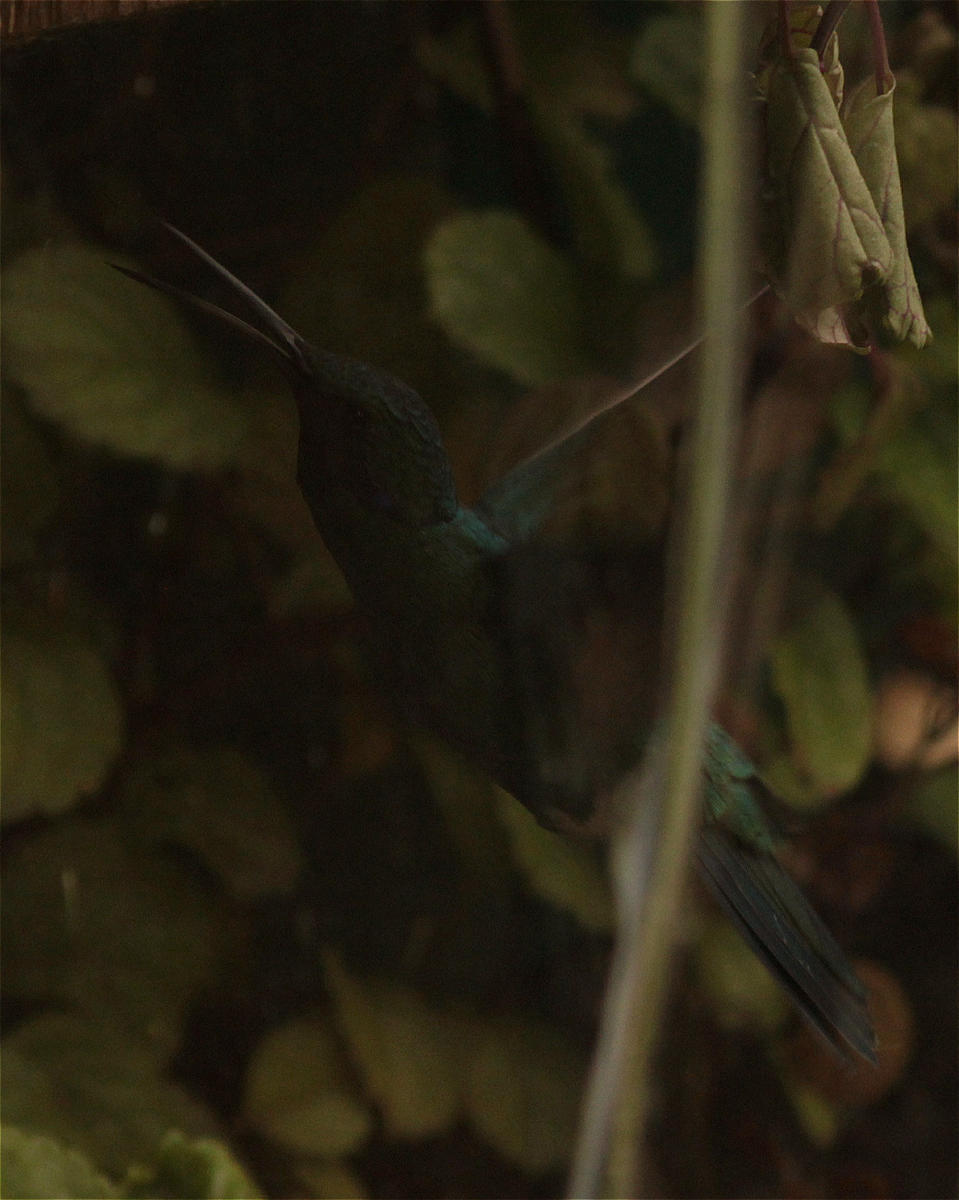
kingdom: Animalia
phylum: Chordata
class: Aves
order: Apodiformes
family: Trochilidae
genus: Colibri
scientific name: Colibri coruscans
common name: Sparkling violetear
